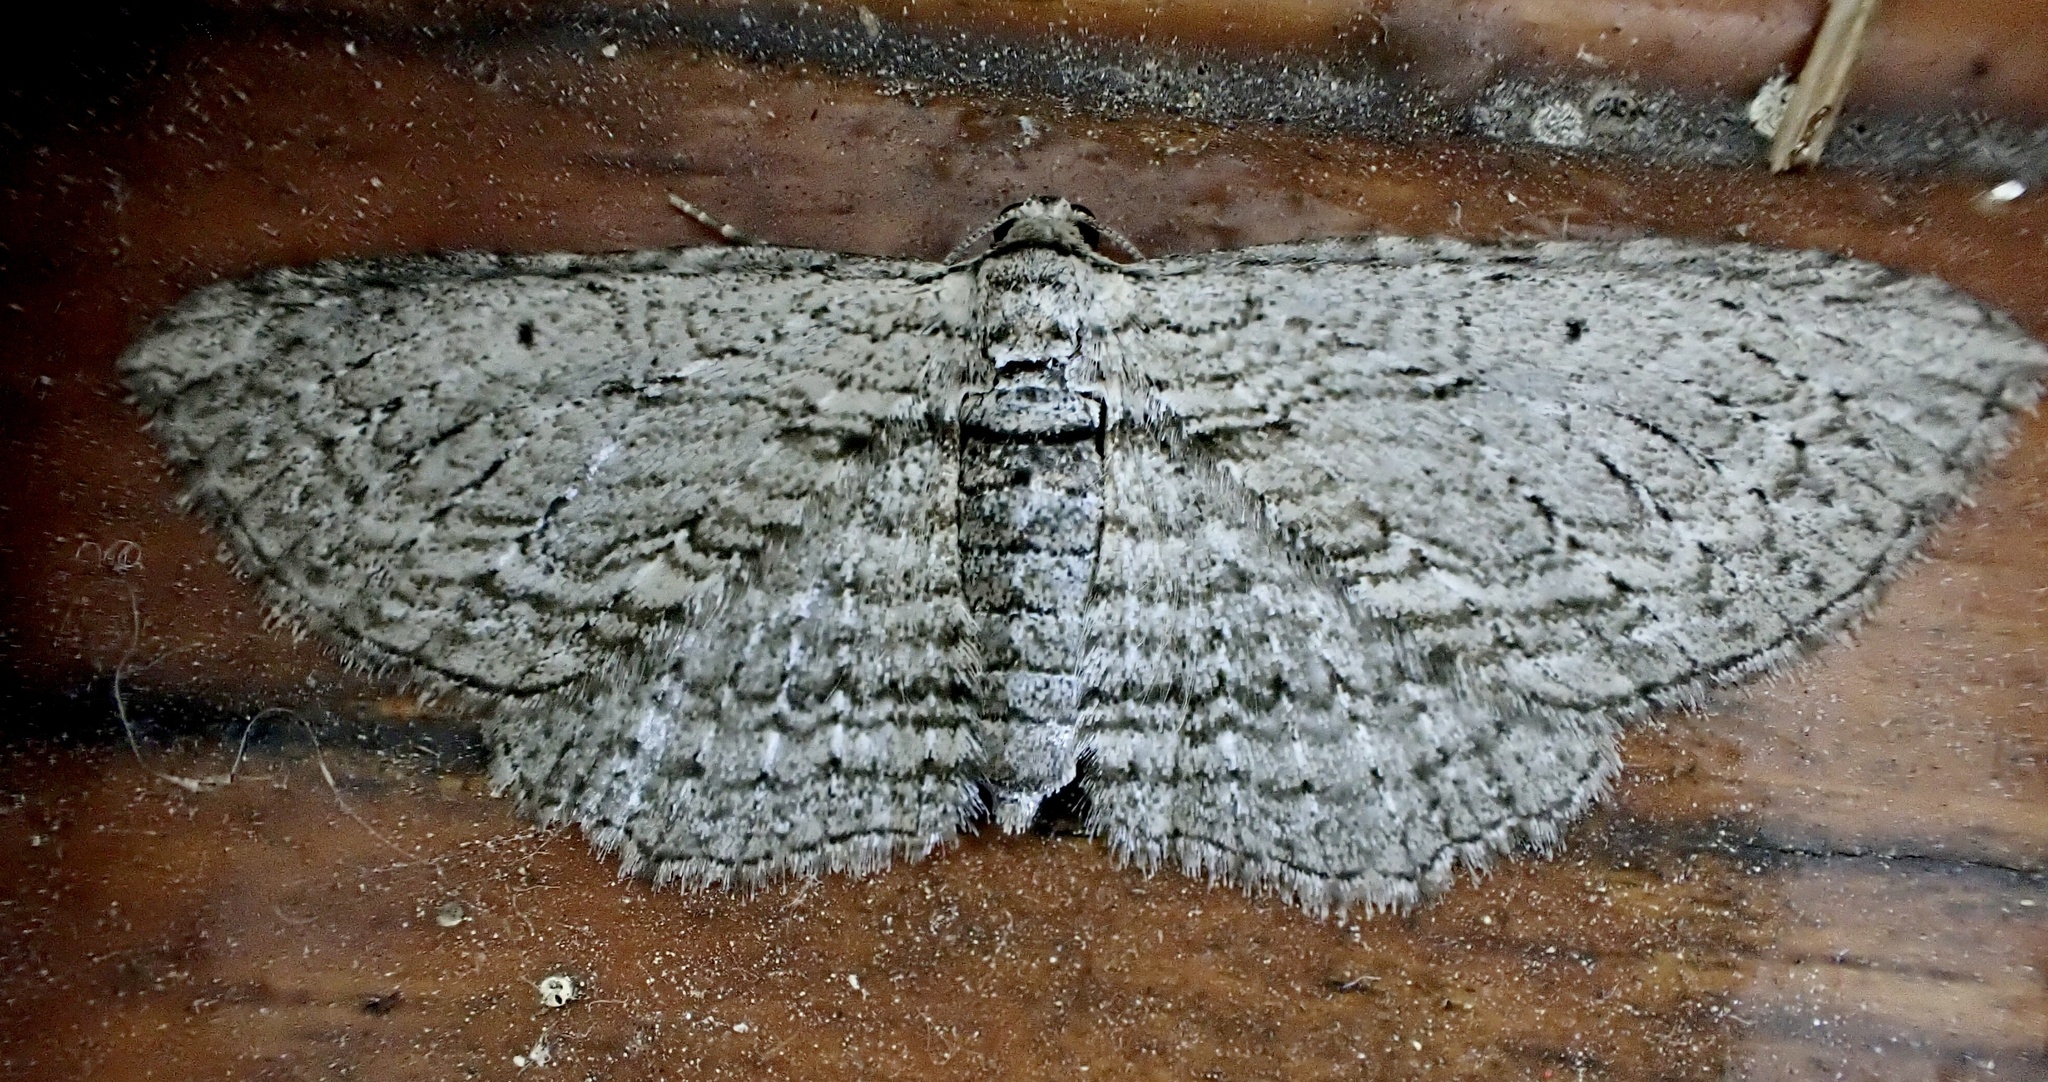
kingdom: Animalia
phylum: Arthropoda
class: Insecta
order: Lepidoptera
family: Geometridae
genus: Horisme
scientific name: Horisme intestinata
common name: Brown bark carpet
